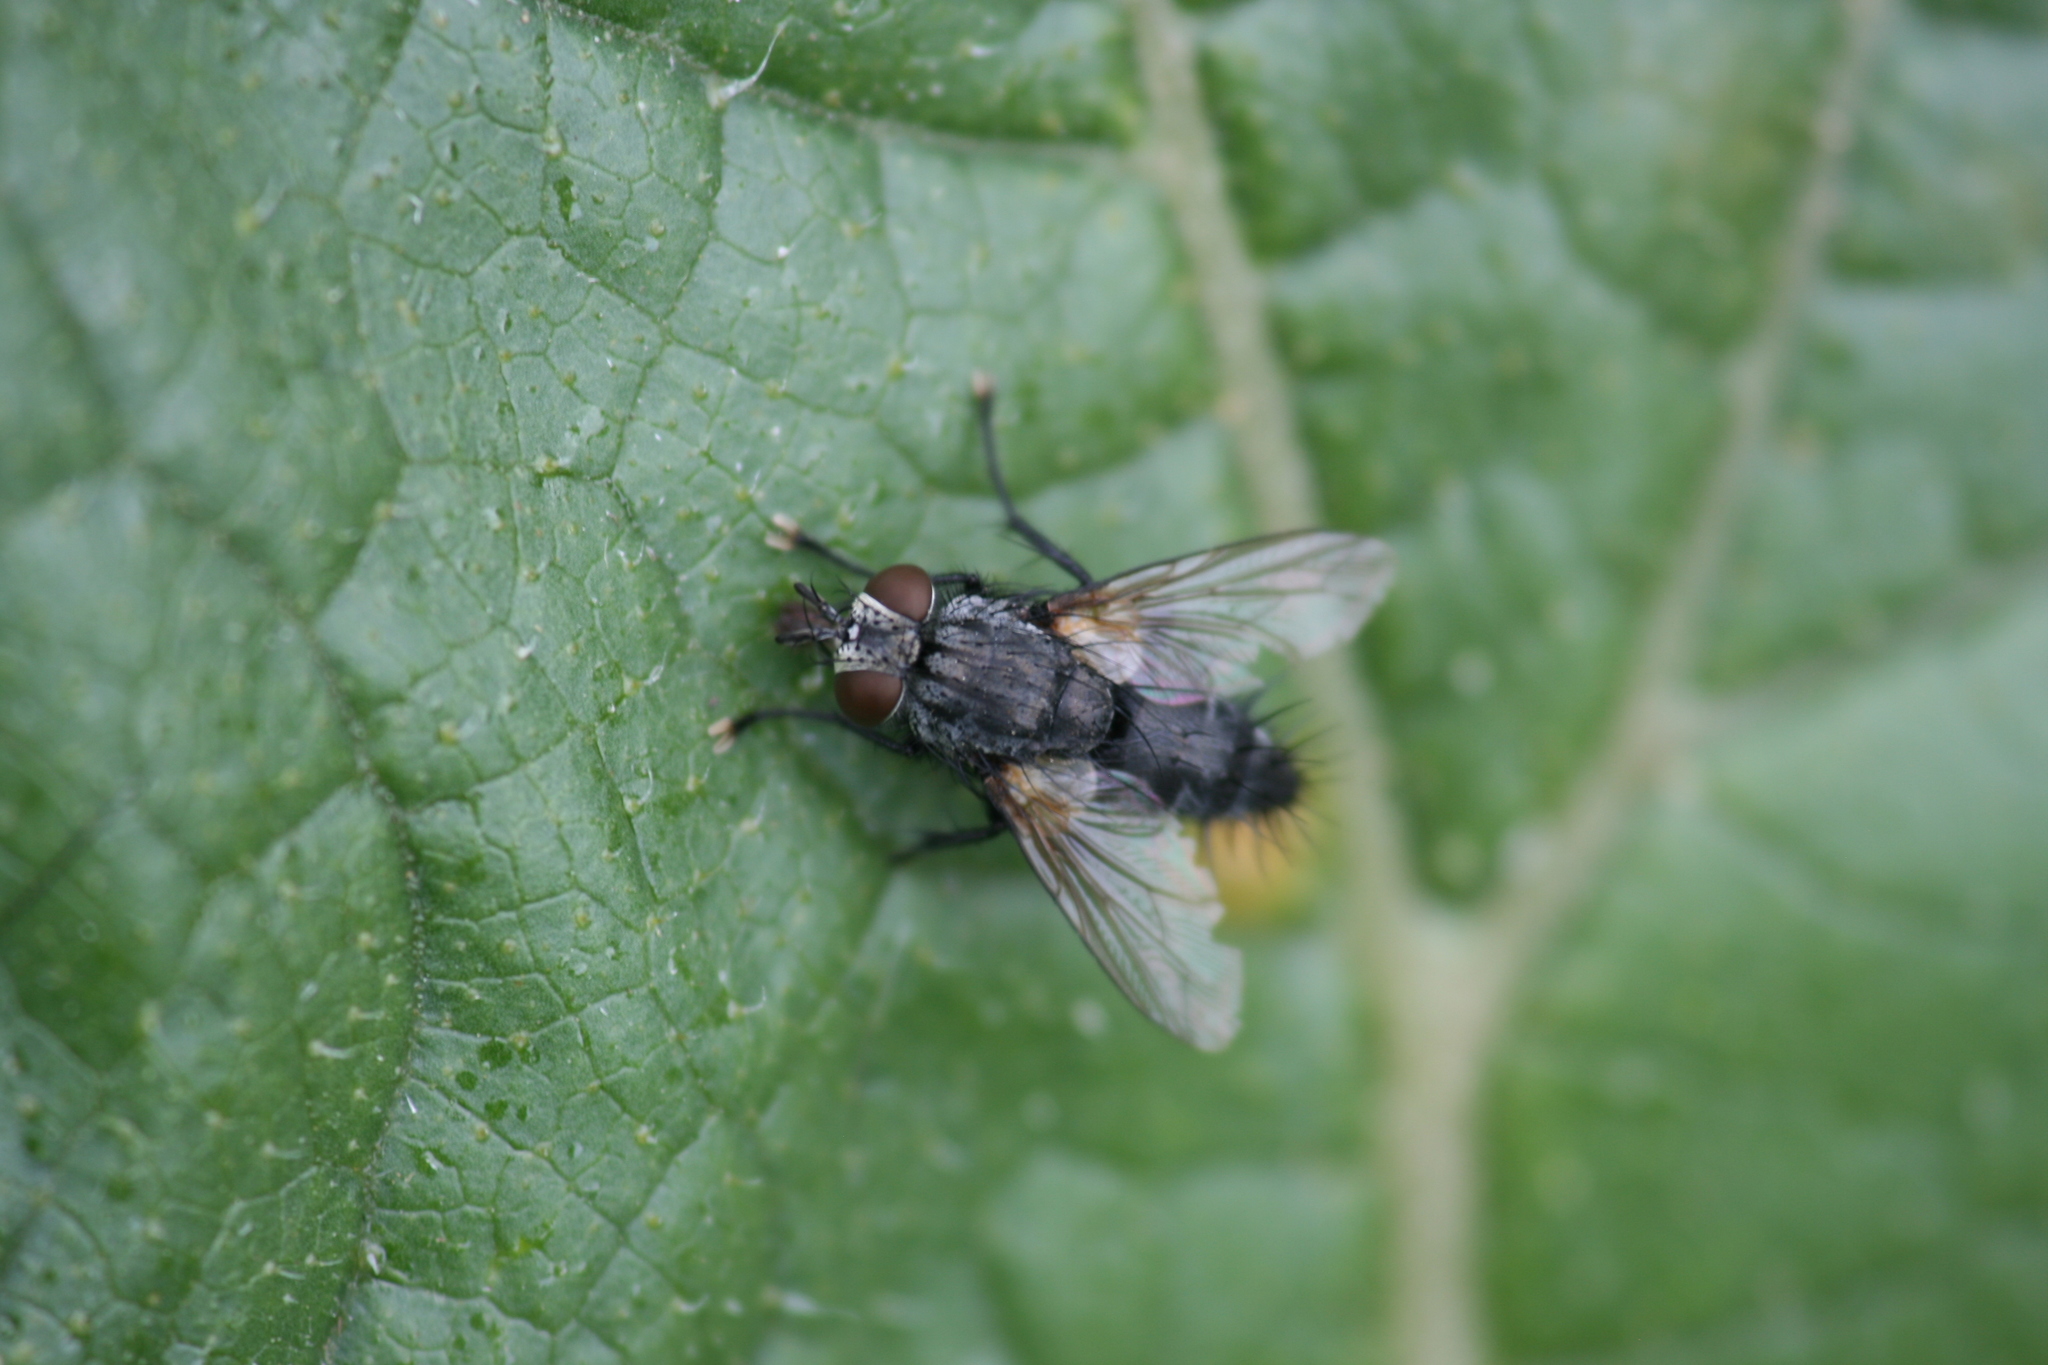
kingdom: Animalia
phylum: Arthropoda
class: Insecta
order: Diptera
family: Tachinidae
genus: Voria
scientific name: Voria ruralis
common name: Parasitic fly
